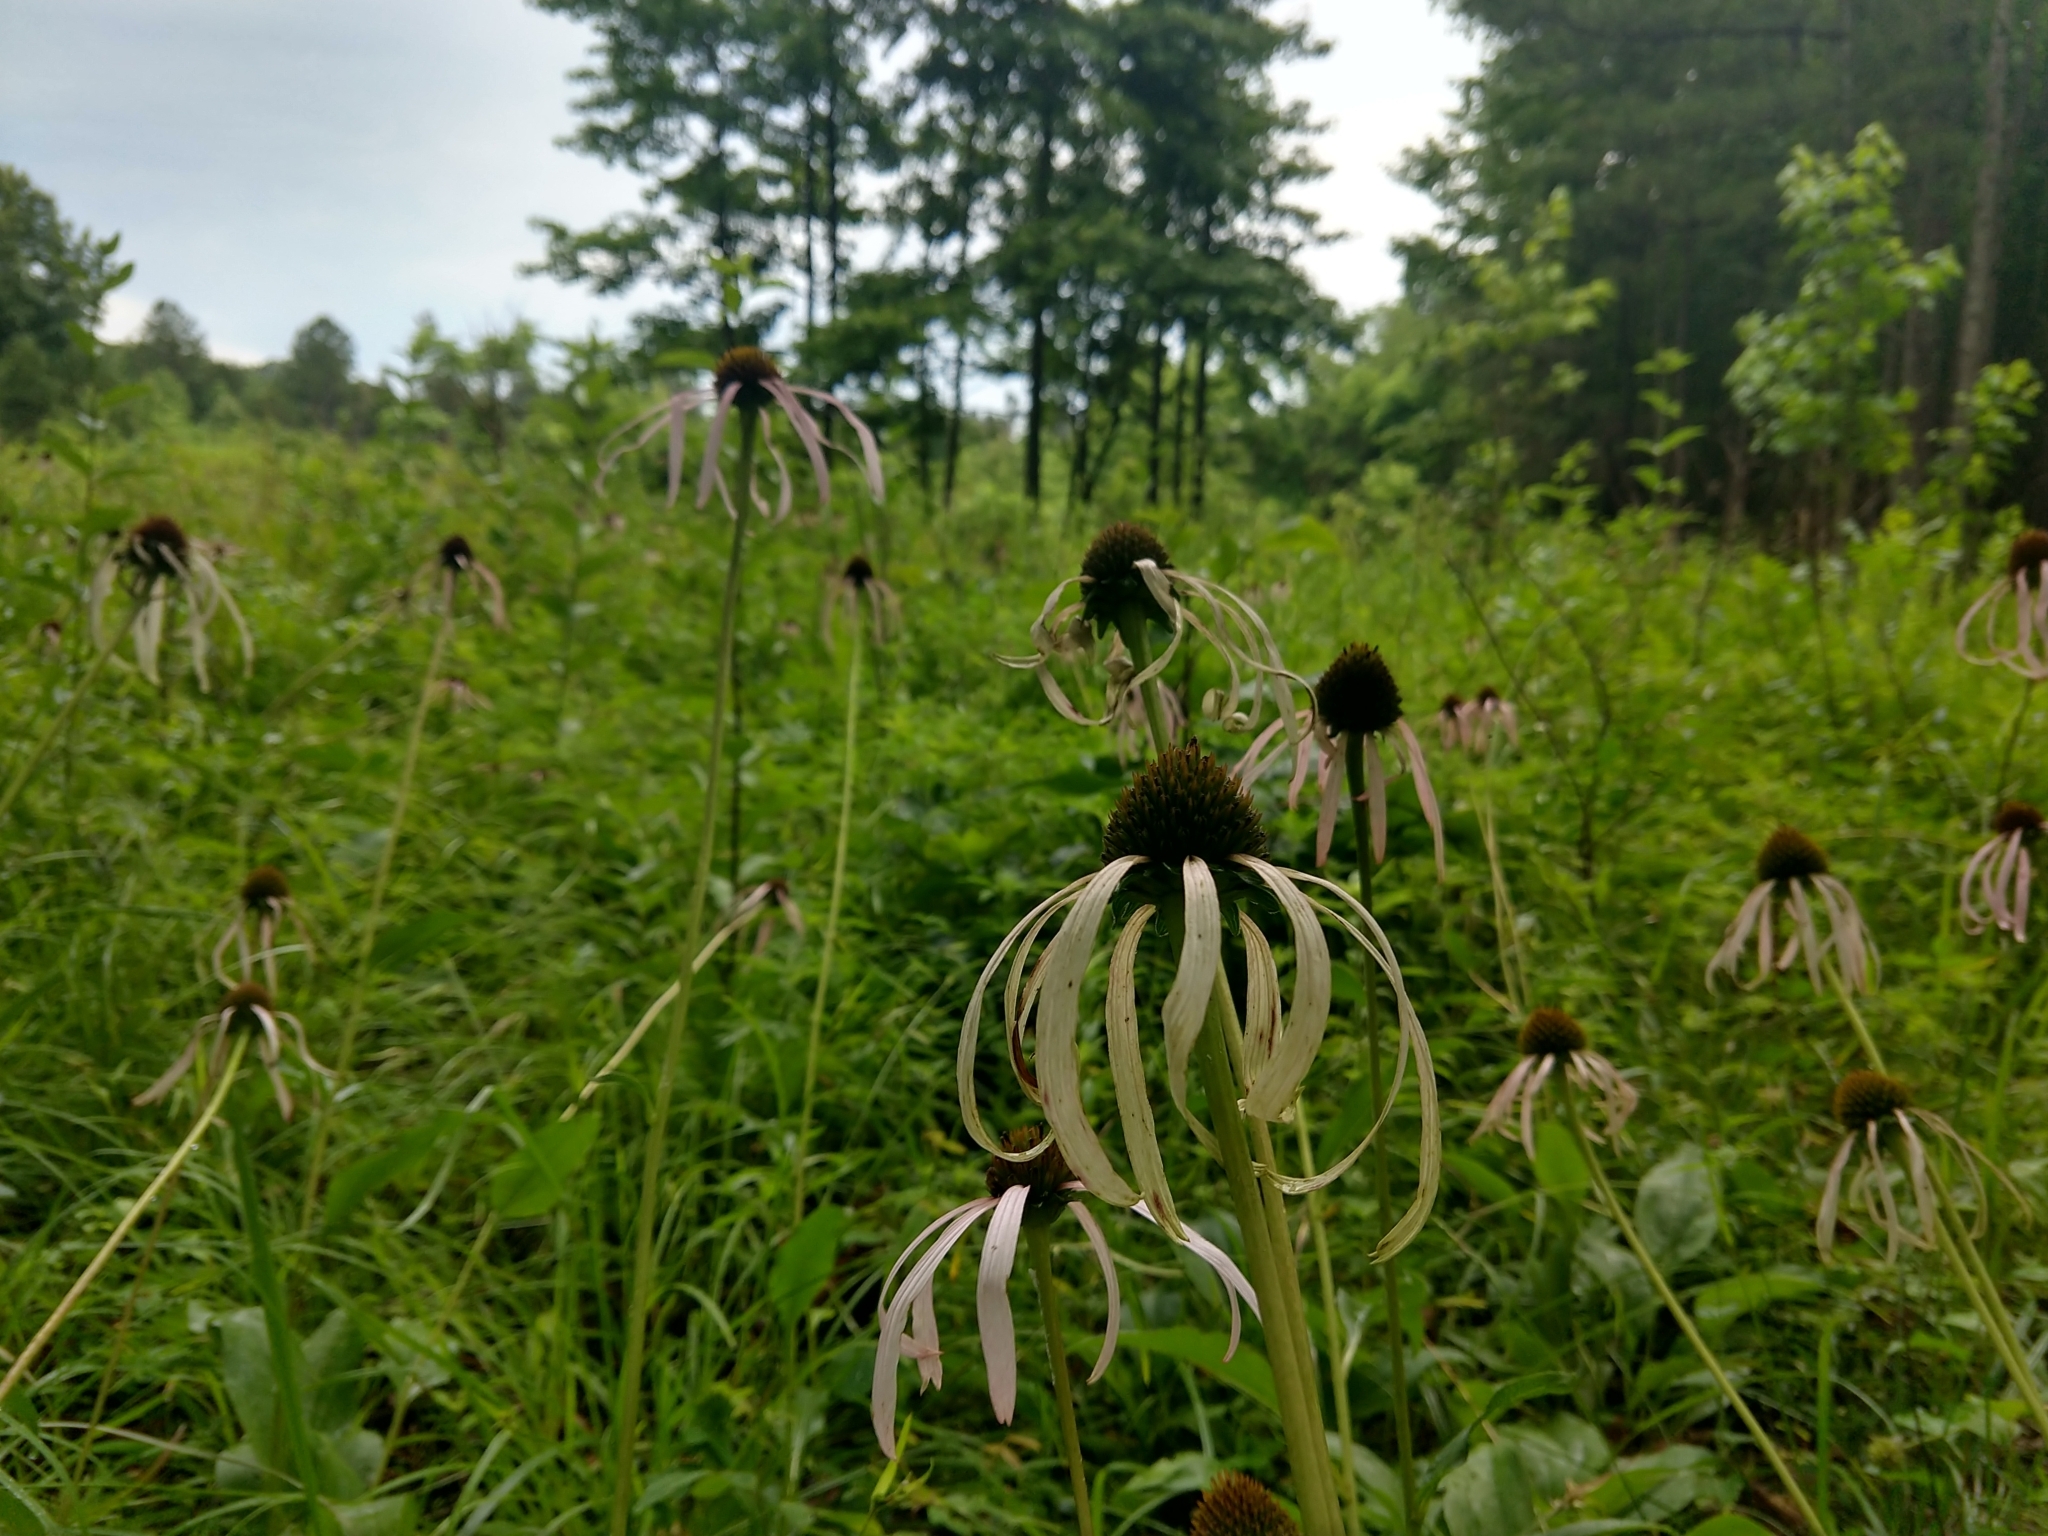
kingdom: Plantae
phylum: Tracheophyta
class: Magnoliopsida
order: Asterales
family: Asteraceae
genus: Echinacea
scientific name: Echinacea laevigata
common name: Smooth coneflower
